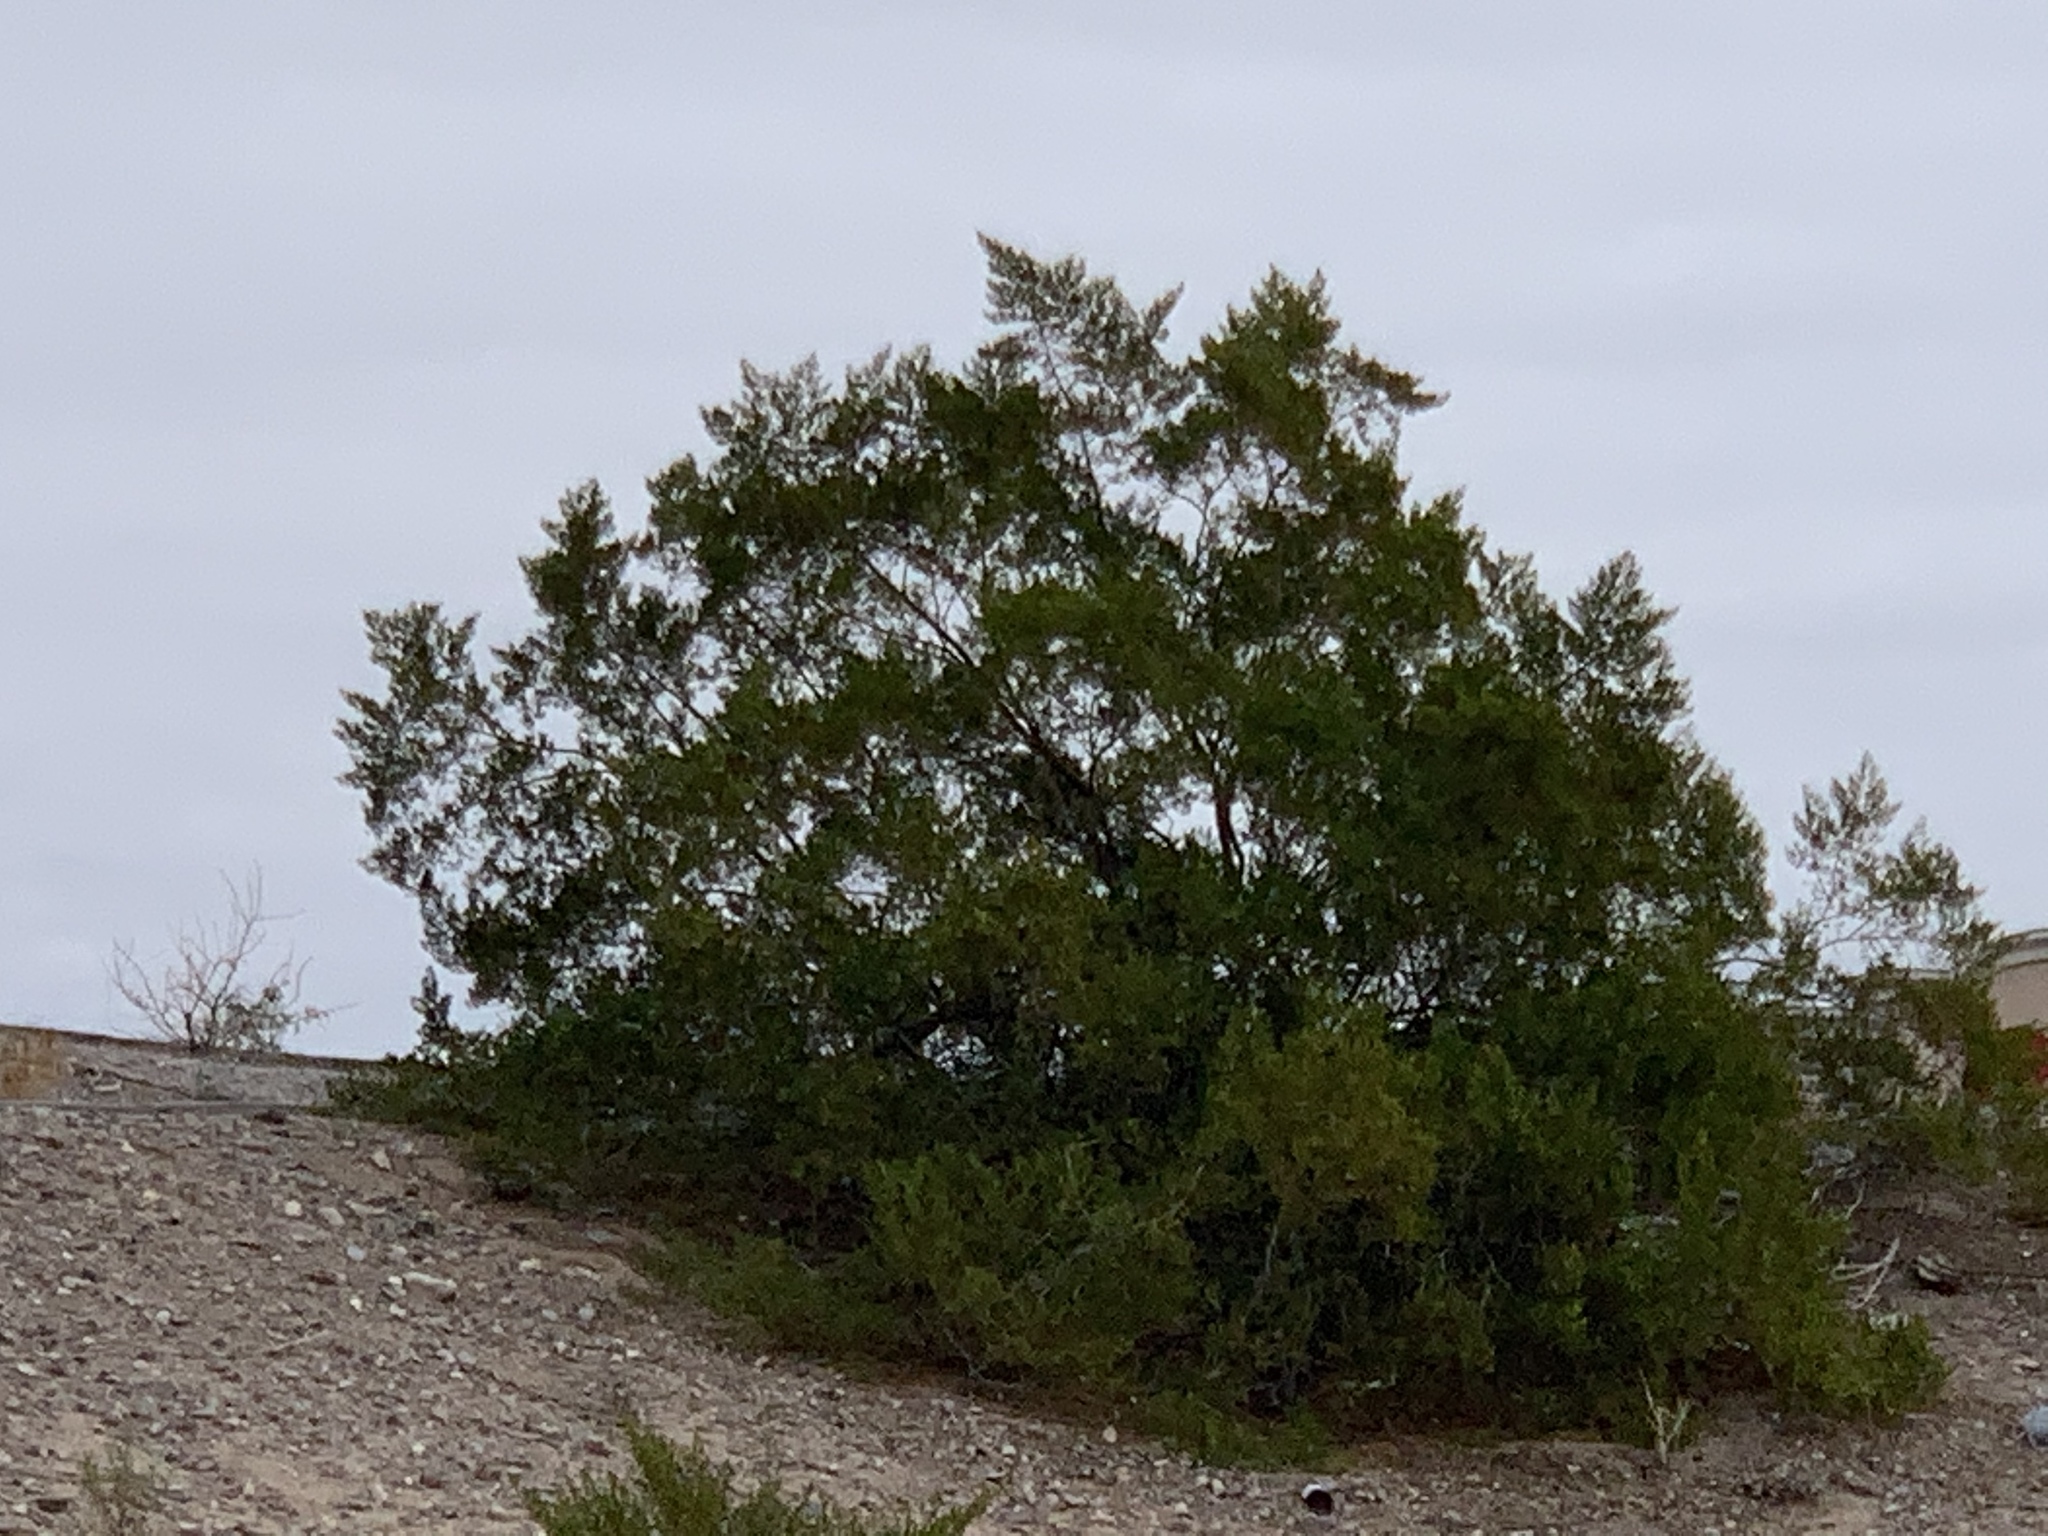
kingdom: Plantae
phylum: Tracheophyta
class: Magnoliopsida
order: Zygophyllales
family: Zygophyllaceae
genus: Larrea
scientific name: Larrea tridentata
